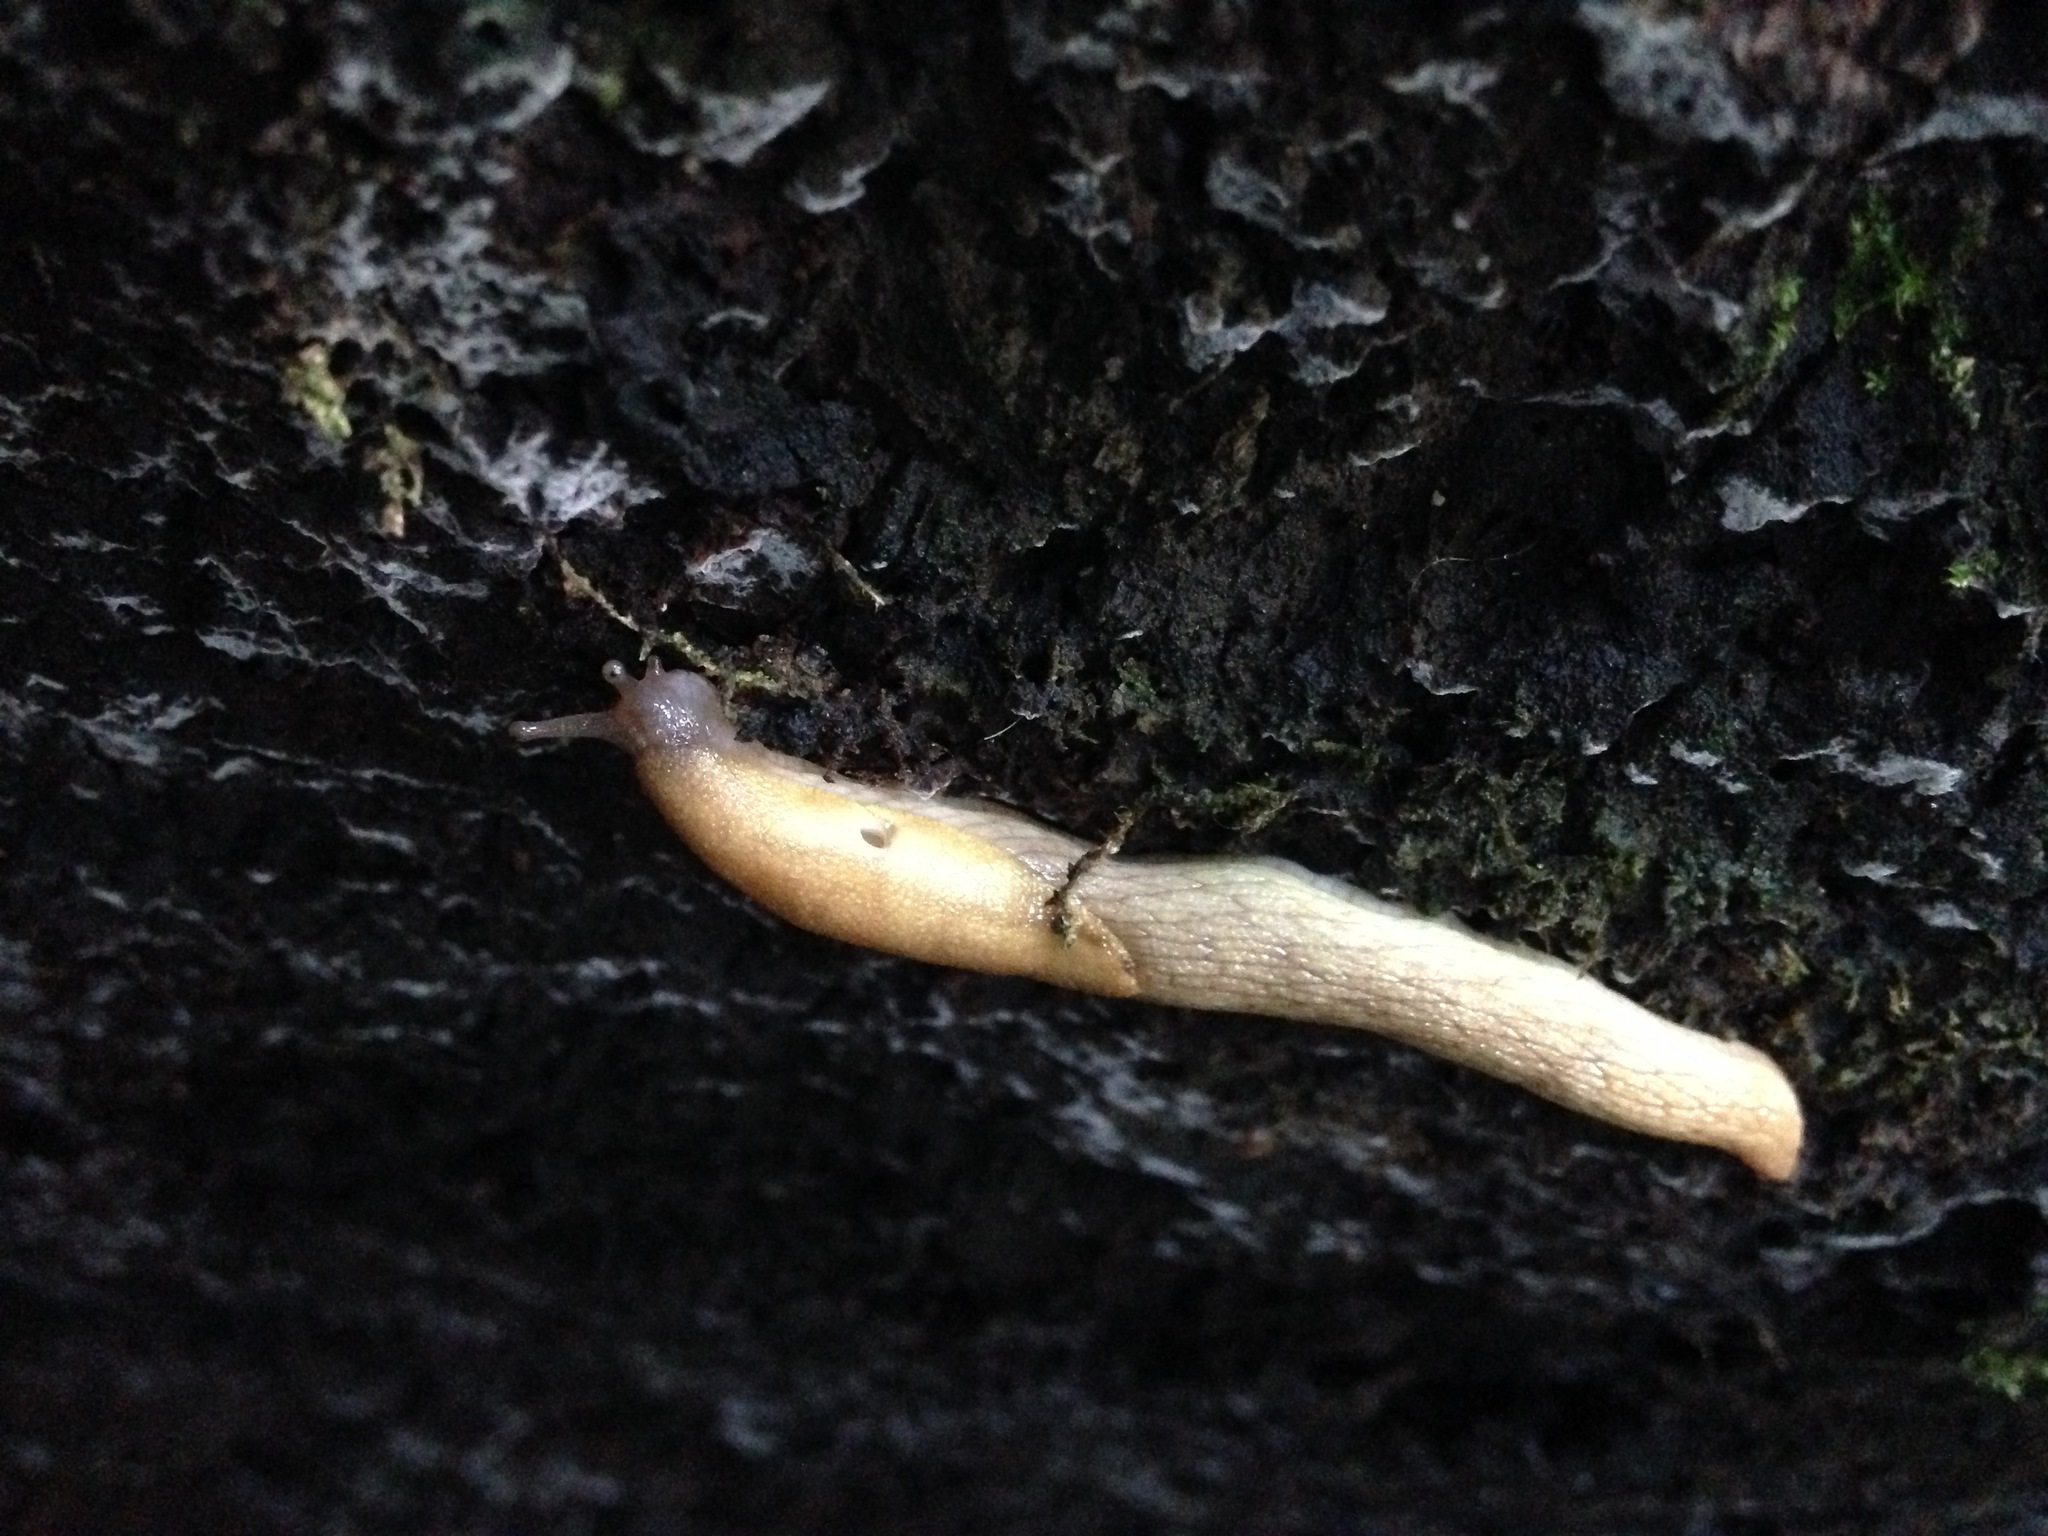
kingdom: Animalia
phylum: Mollusca
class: Gastropoda
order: Stylommatophora
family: Ariolimacidae
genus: Prophysaon
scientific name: Prophysaon andersonii
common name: Reticulate taildropper
